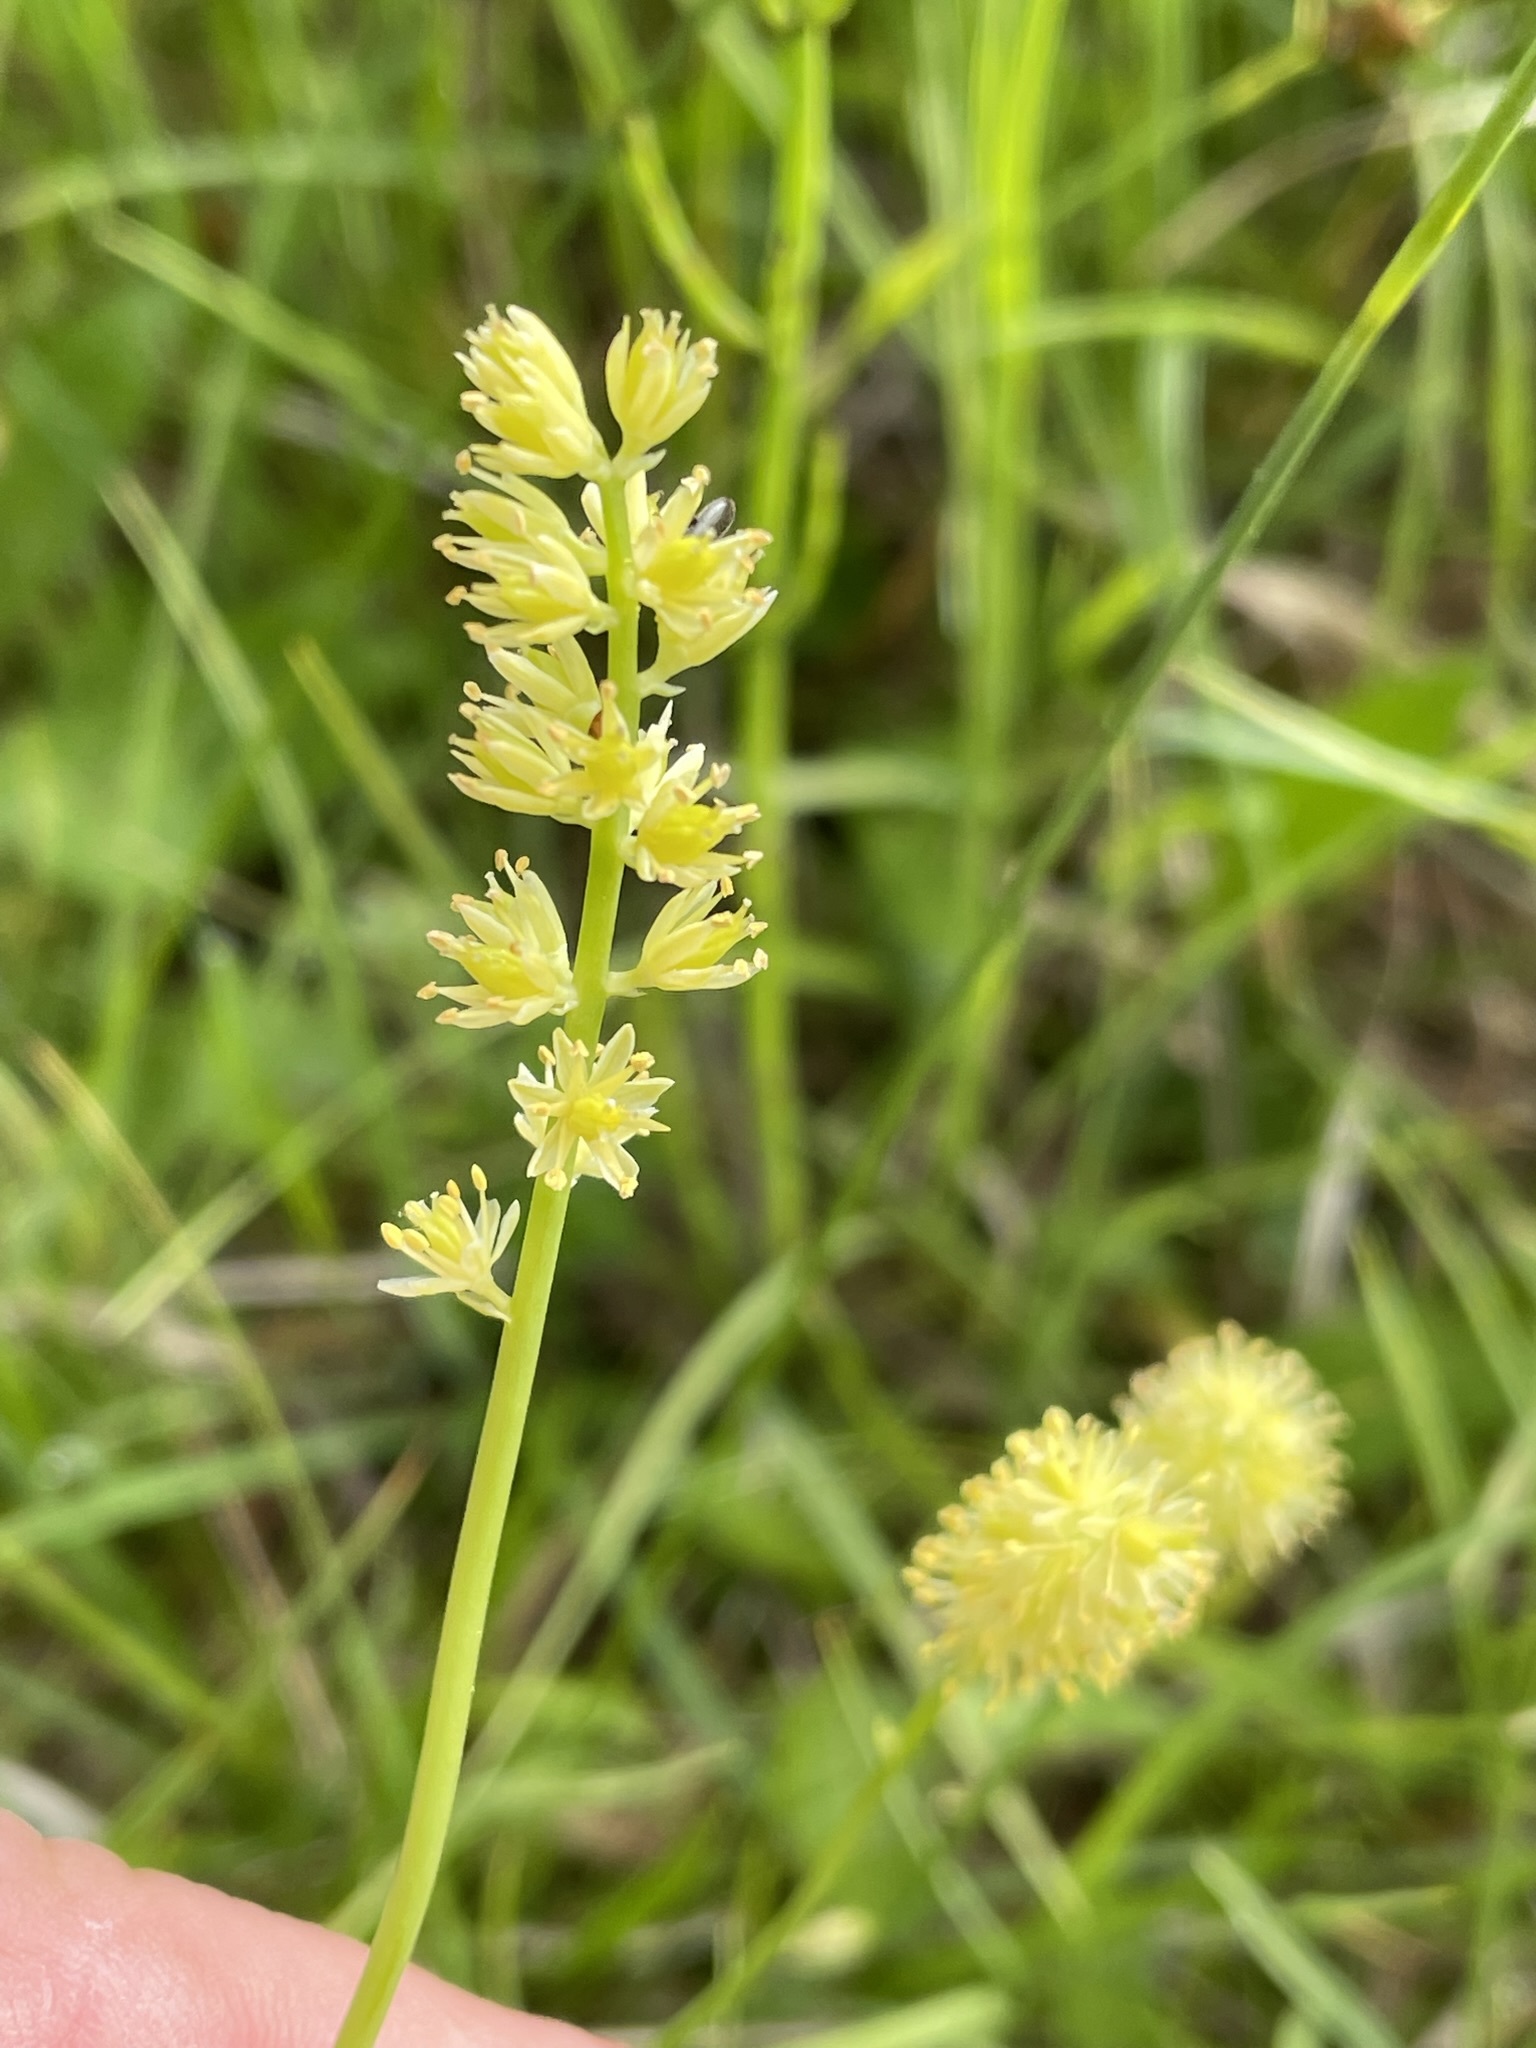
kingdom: Plantae
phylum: Tracheophyta
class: Liliopsida
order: Alismatales
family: Tofieldiaceae
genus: Tofieldia
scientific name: Tofieldia calyculata
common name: German-asphodel
